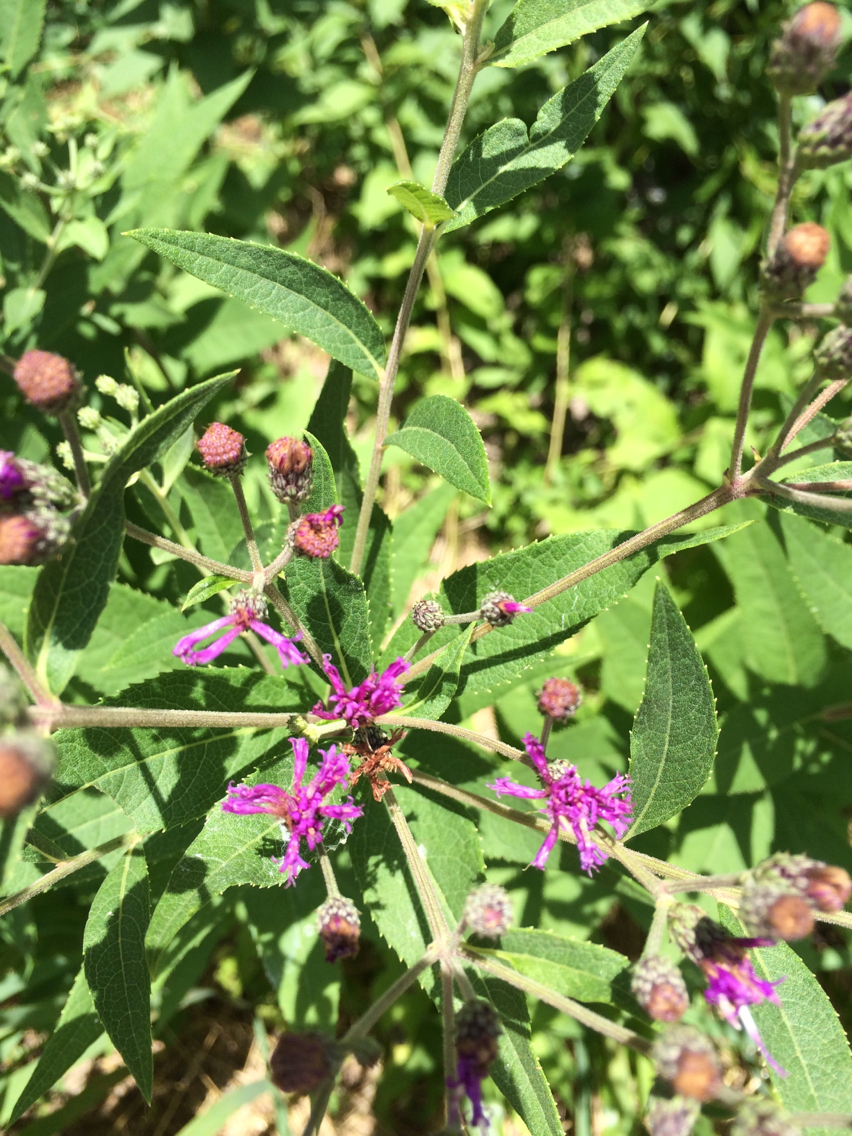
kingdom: Plantae
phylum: Tracheophyta
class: Magnoliopsida
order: Asterales
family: Asteraceae
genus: Vernonia
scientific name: Vernonia baldwinii
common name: Western ironweed
